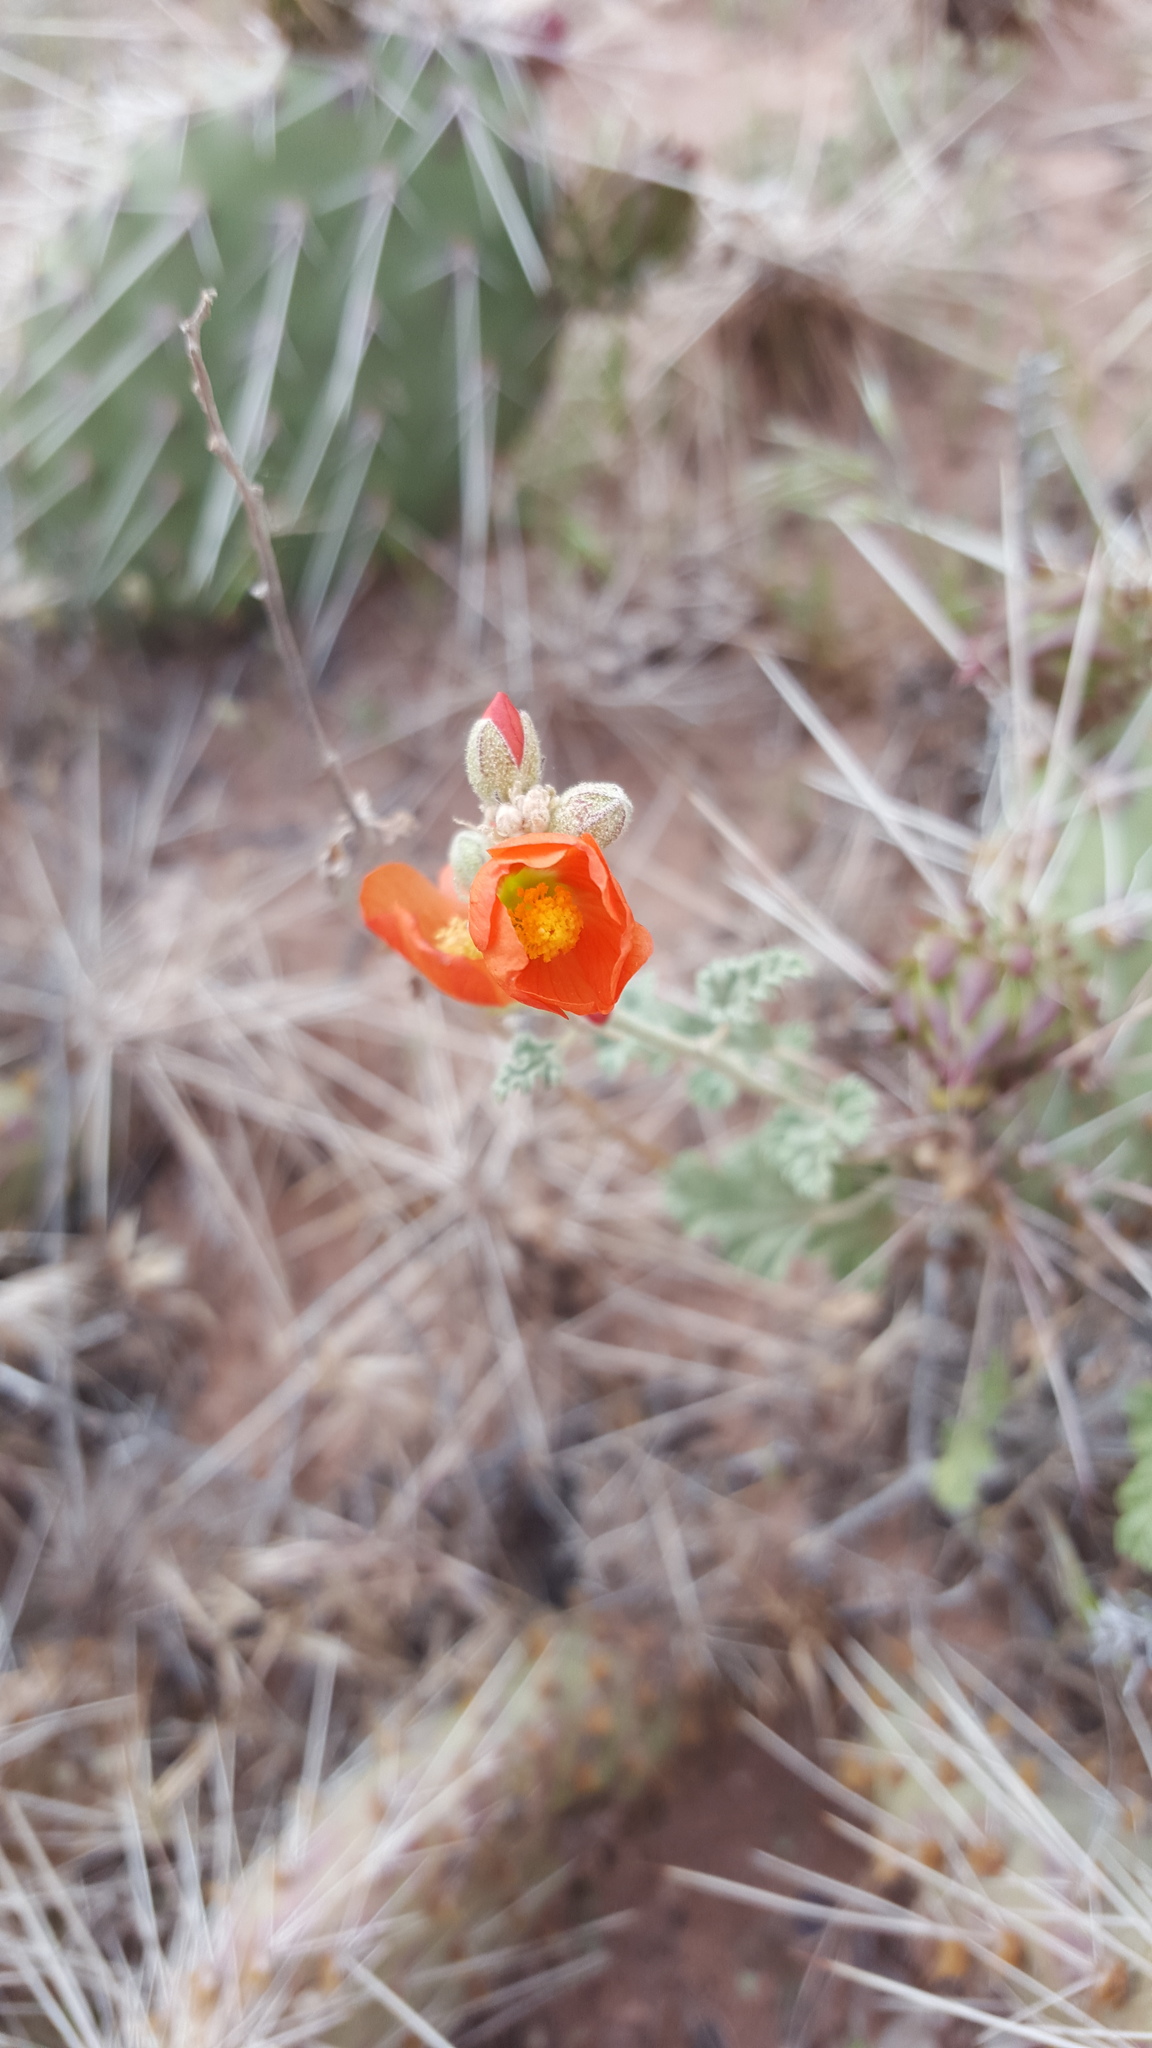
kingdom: Plantae
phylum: Tracheophyta
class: Magnoliopsida
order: Malvales
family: Malvaceae
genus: Sphaeralcea
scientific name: Sphaeralcea parvifolia
